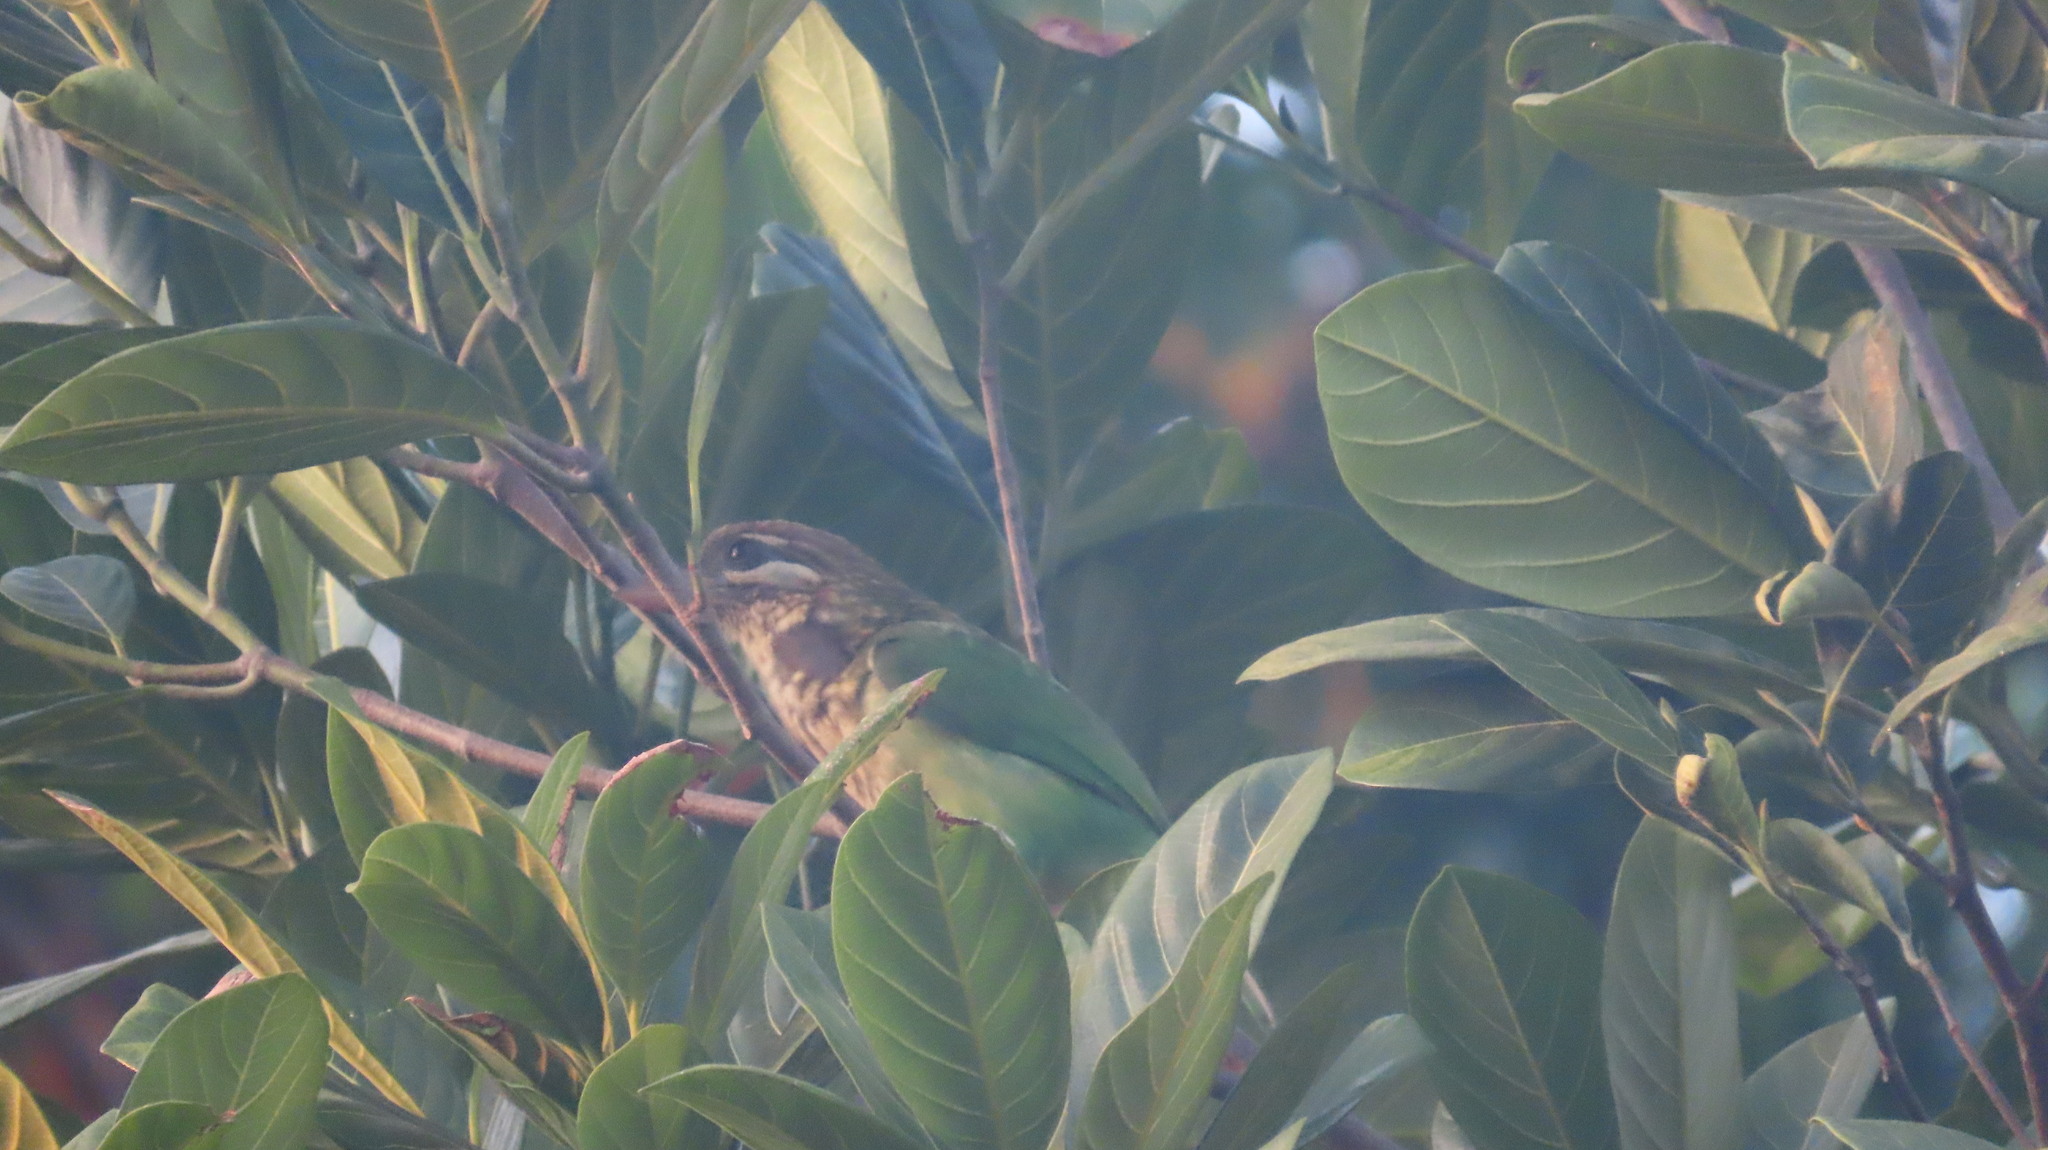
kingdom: Animalia
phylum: Chordata
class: Aves
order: Piciformes
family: Megalaimidae
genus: Psilopogon
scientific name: Psilopogon viridis
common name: White-cheeked barbet
